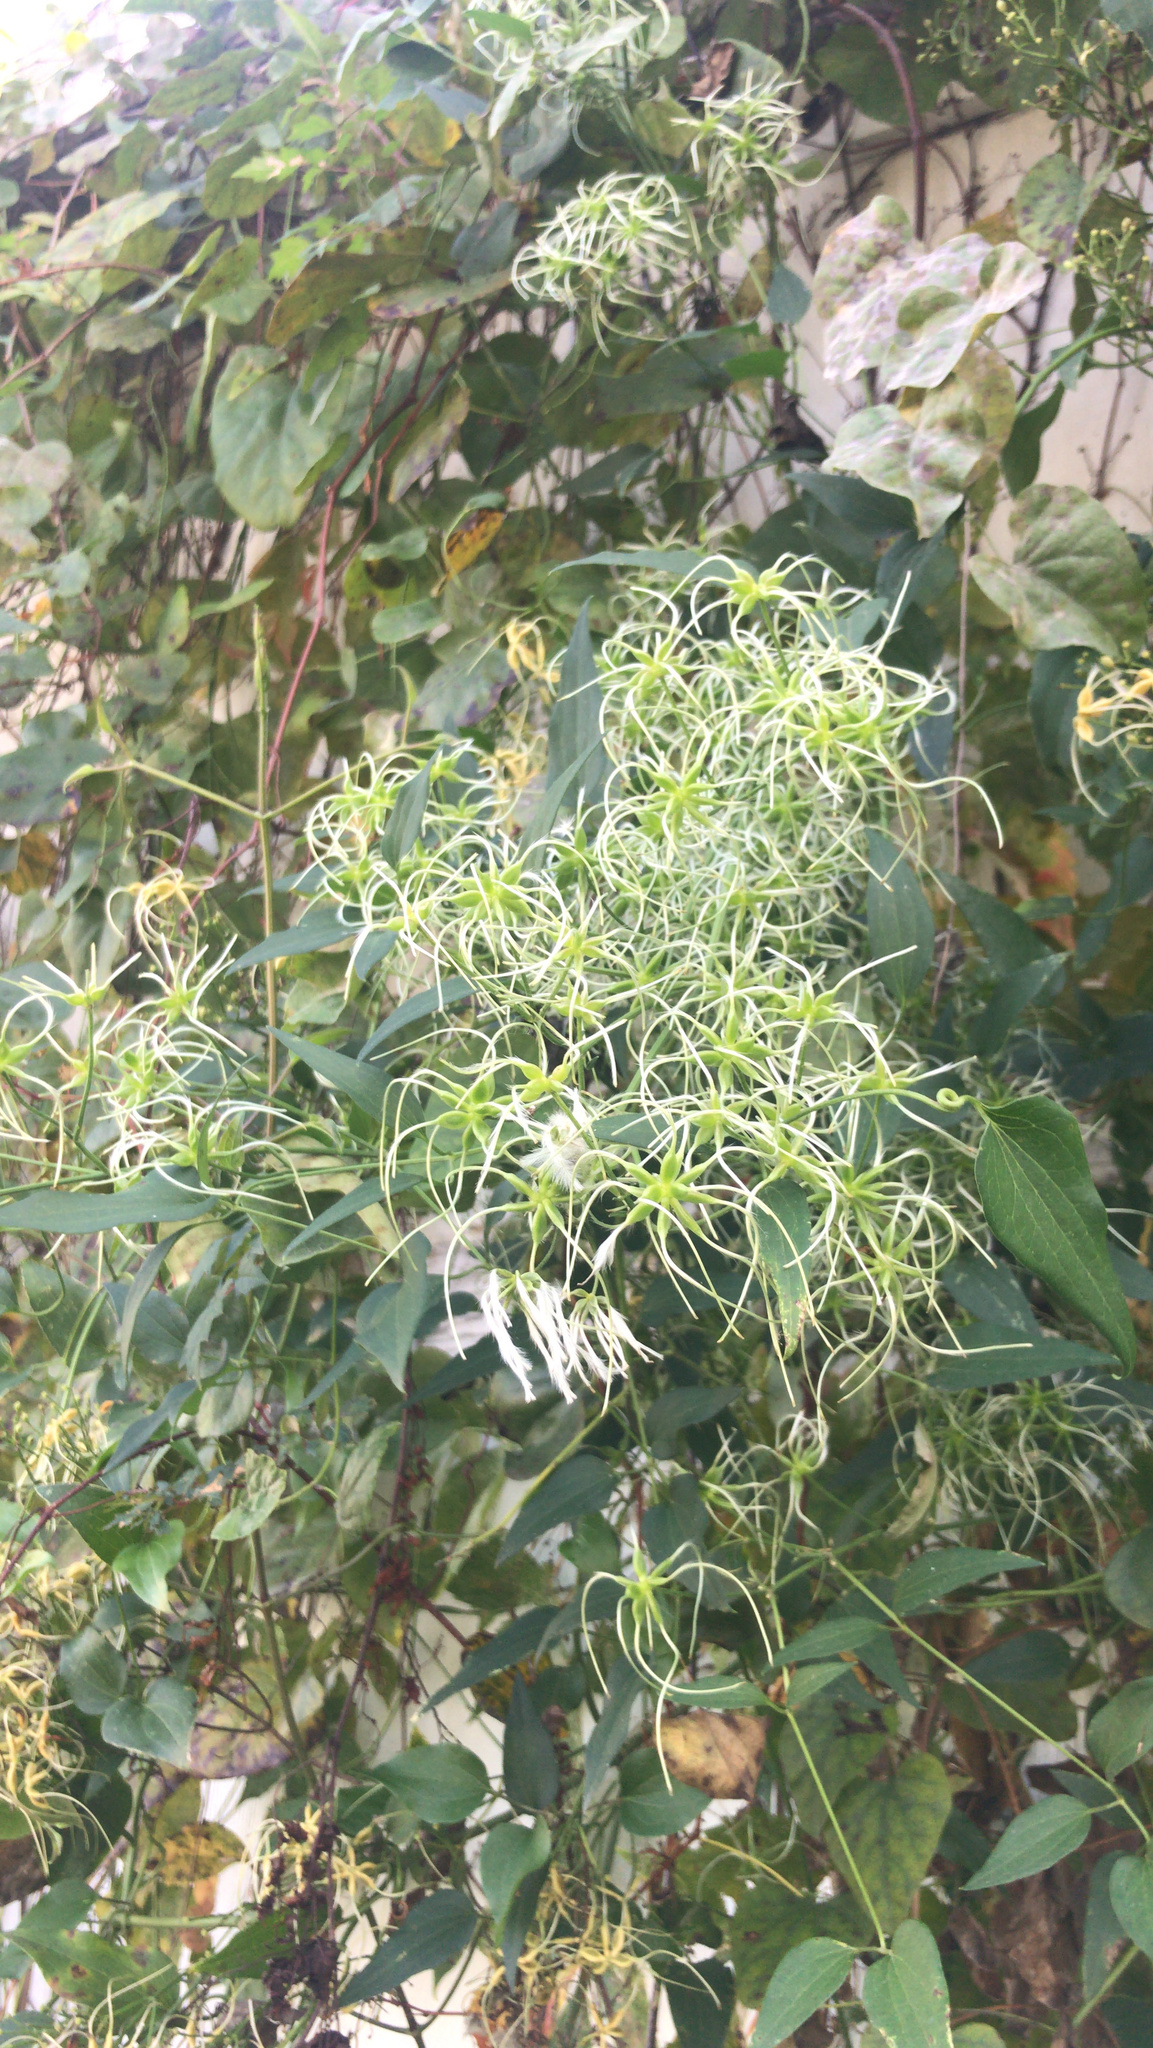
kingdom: Plantae
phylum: Tracheophyta
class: Magnoliopsida
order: Ranunculales
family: Ranunculaceae
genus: Clematis
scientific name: Clematis terniflora
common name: Sweet autumn clematis
